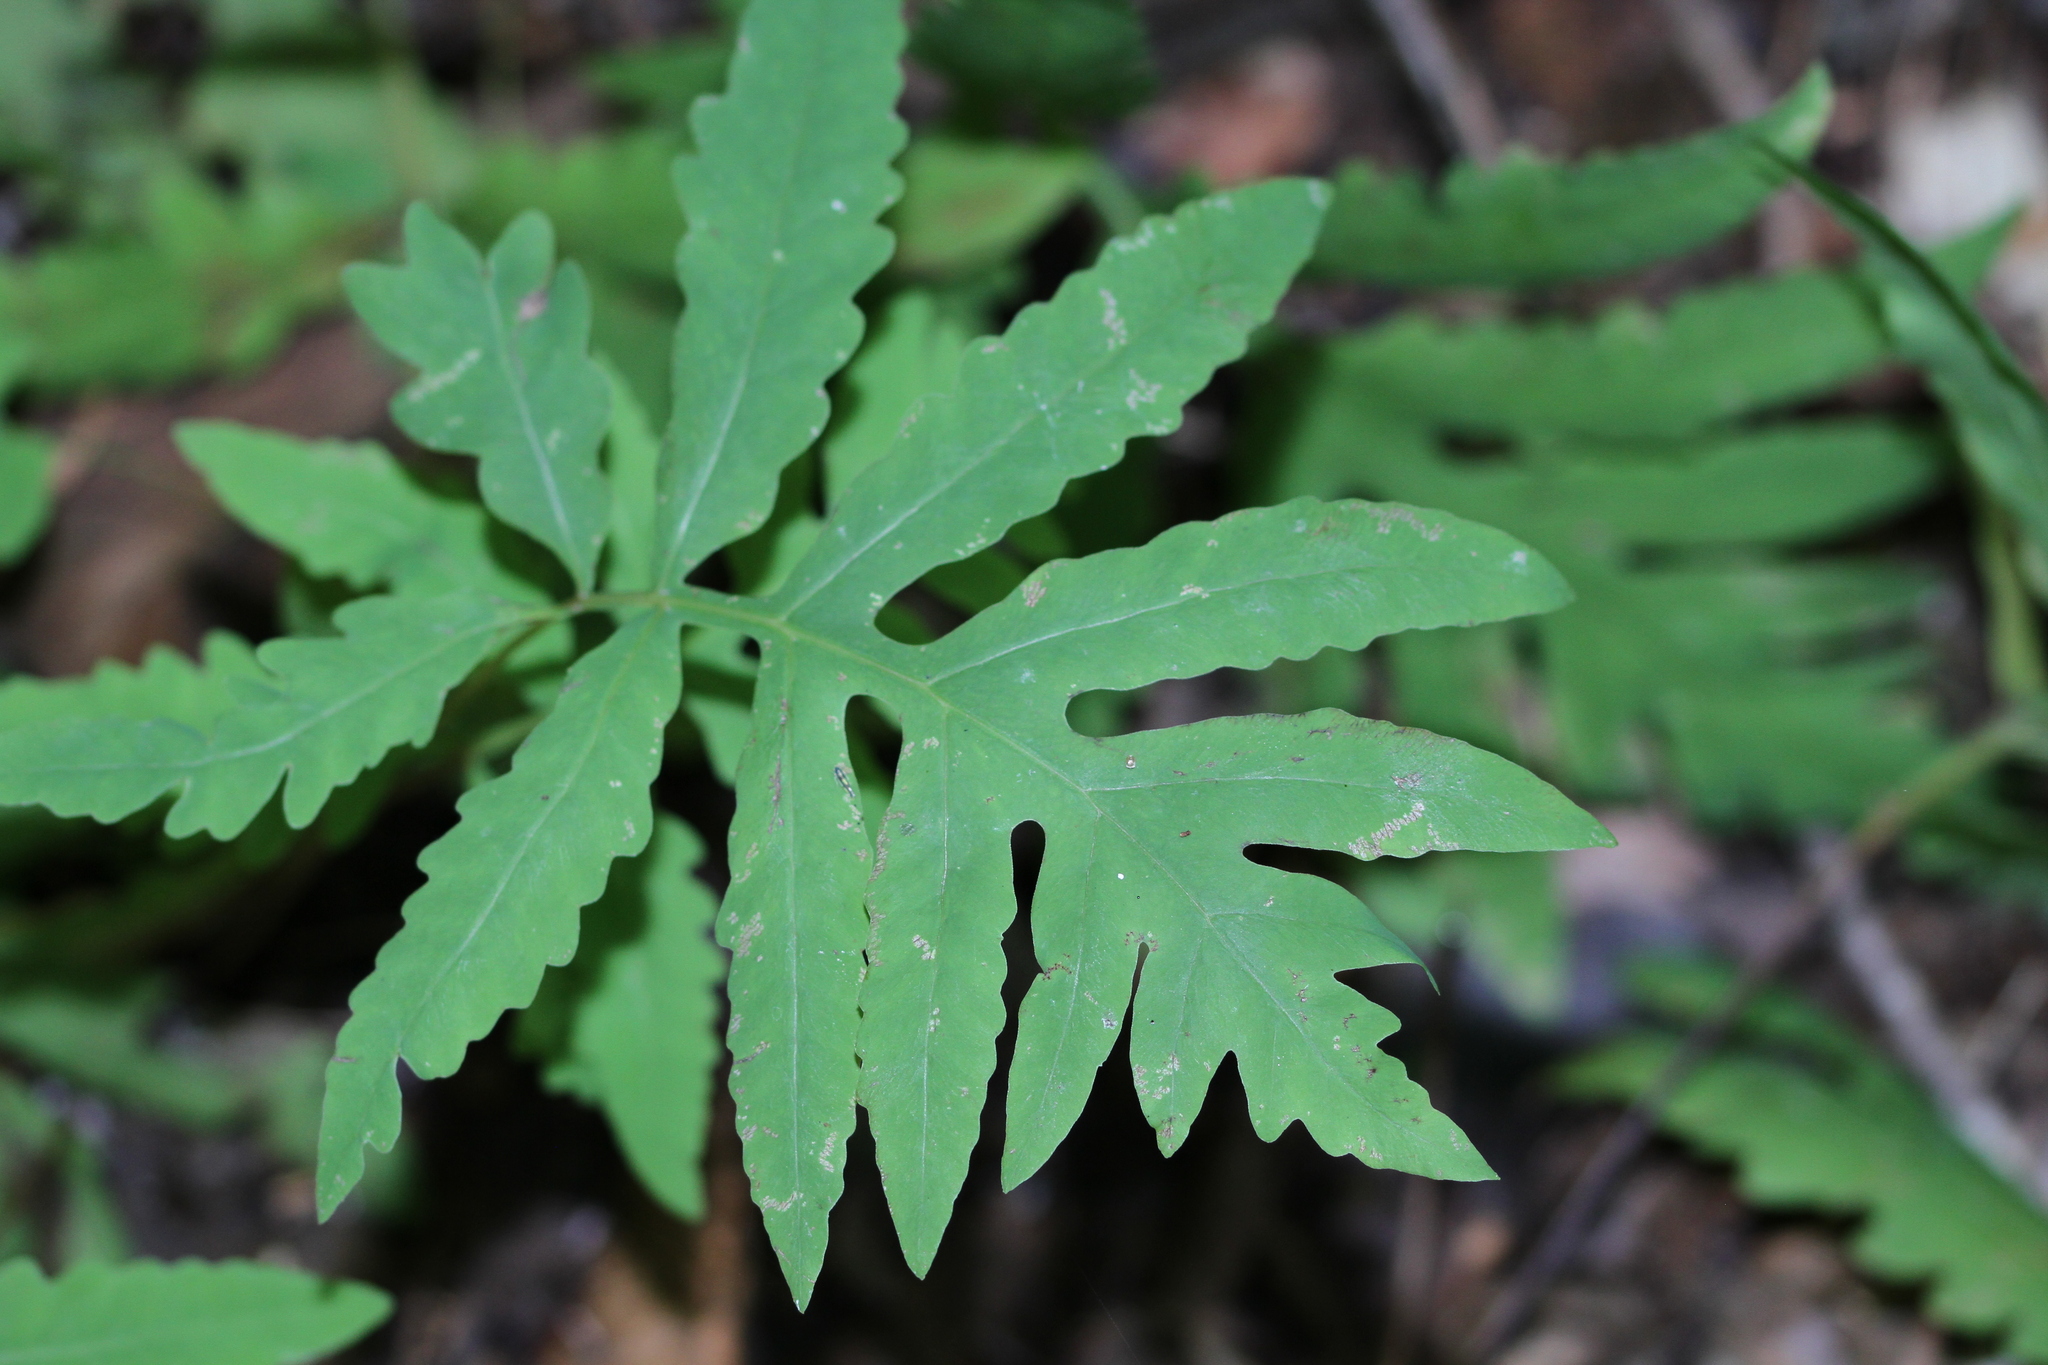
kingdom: Plantae
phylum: Tracheophyta
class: Polypodiopsida
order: Polypodiales
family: Onocleaceae
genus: Onoclea
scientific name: Onoclea sensibilis
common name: Sensitive fern
